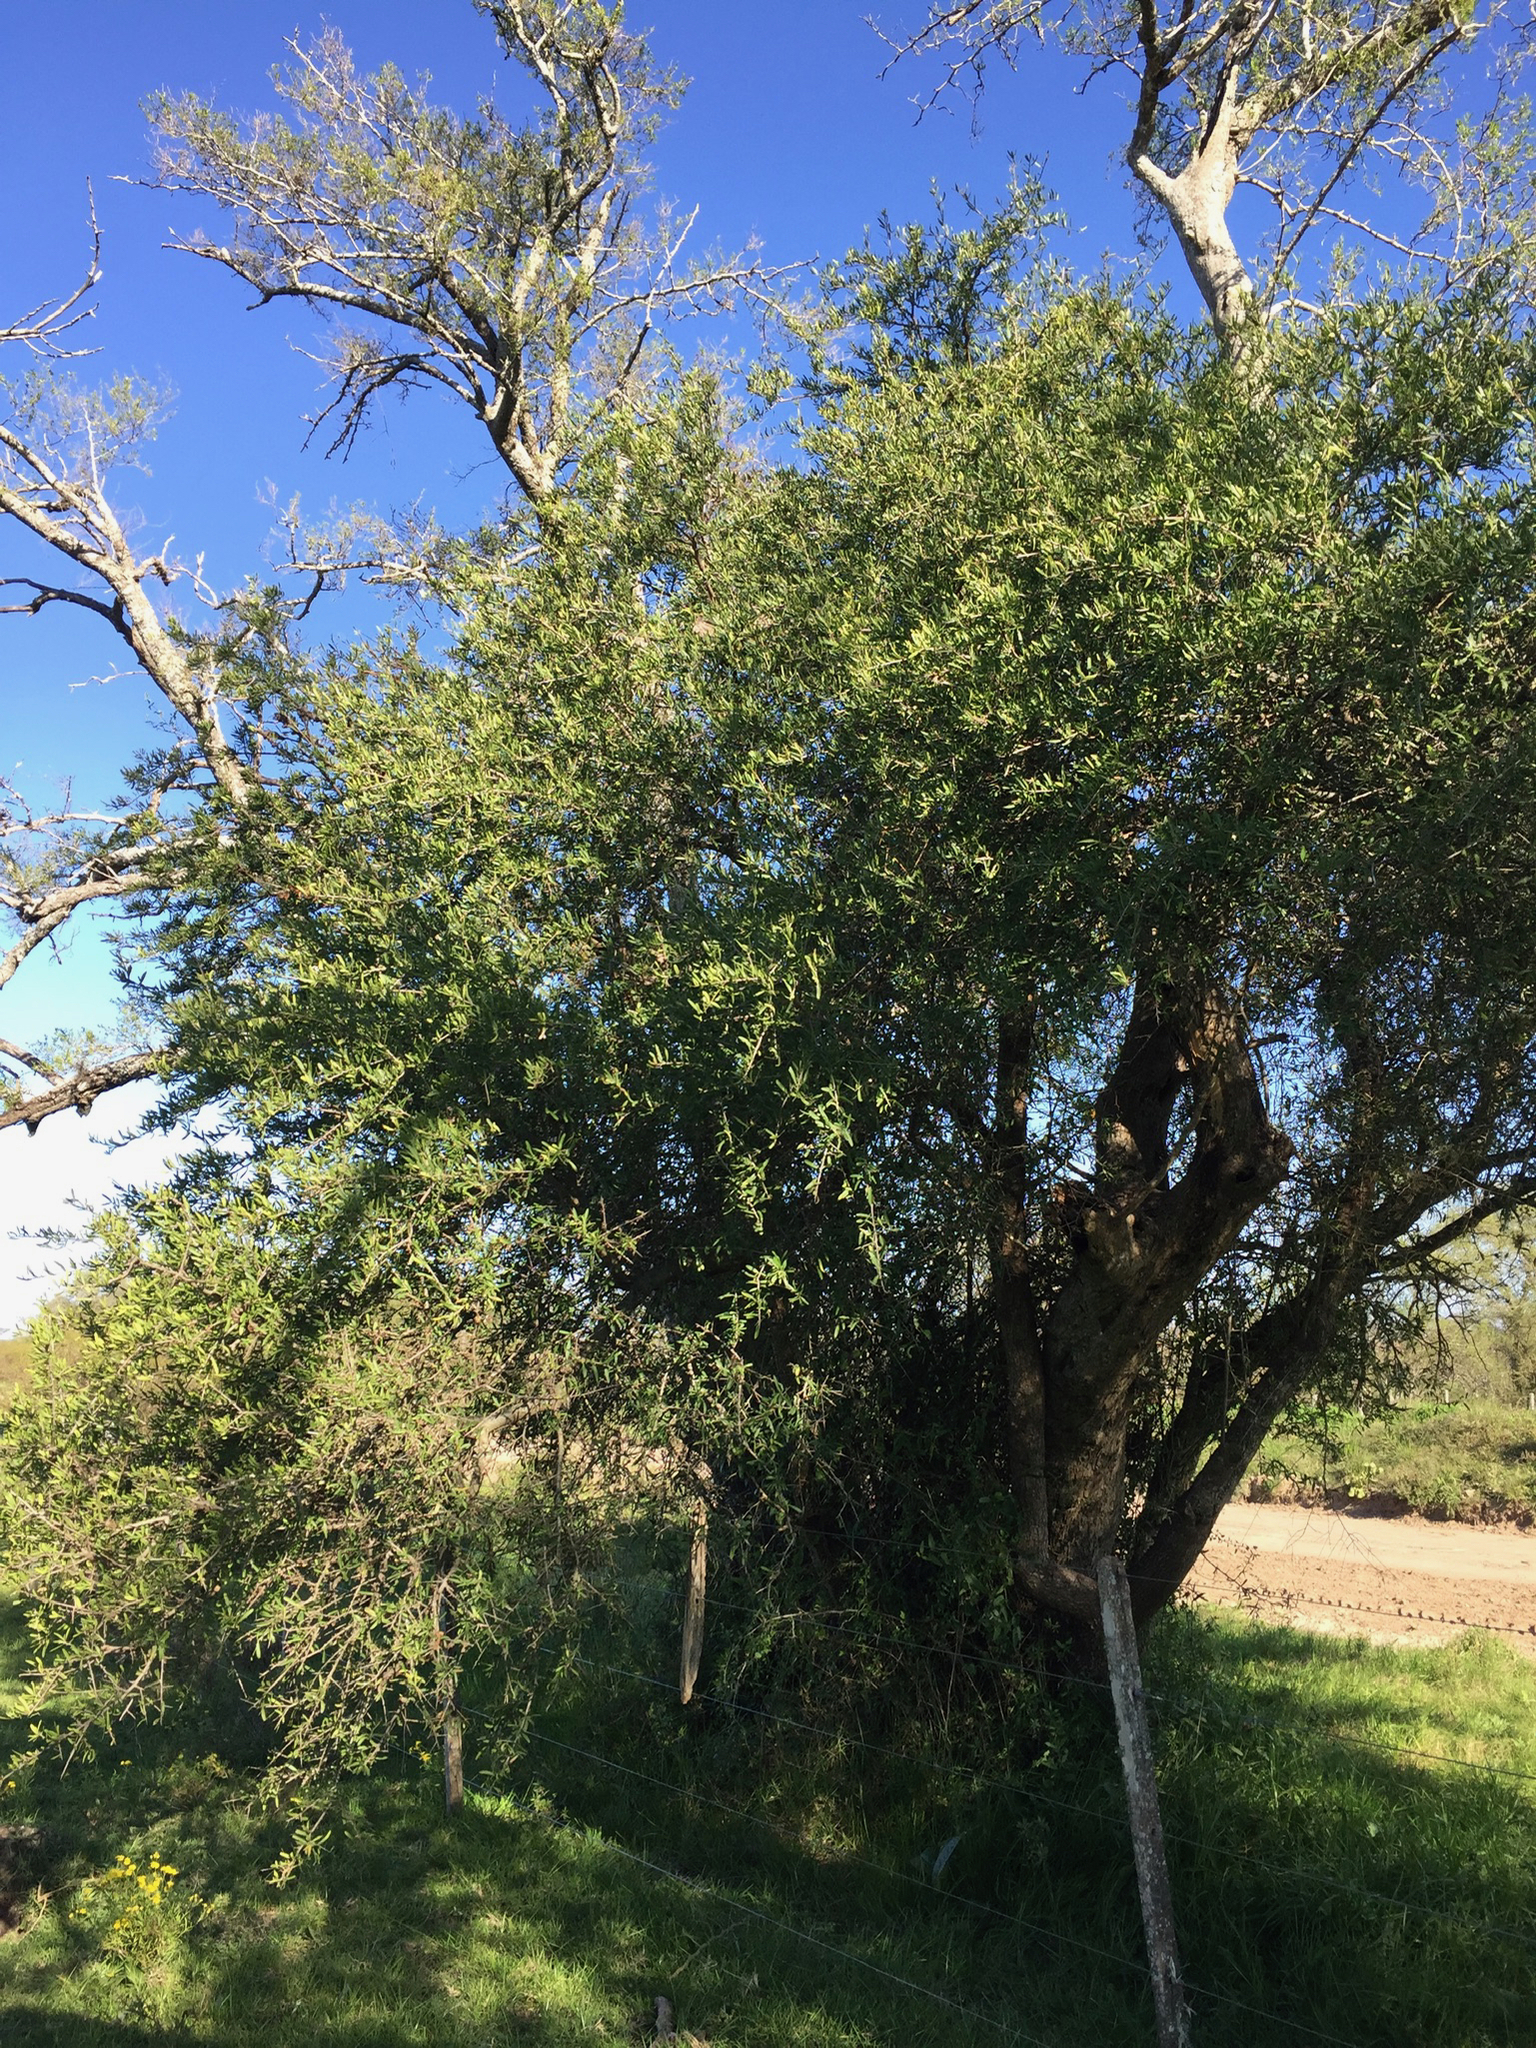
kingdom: Plantae
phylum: Tracheophyta
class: Magnoliopsida
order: Sapindales
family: Anacardiaceae
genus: Schinus
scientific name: Schinus longifolia
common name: Longleaf peppertree
